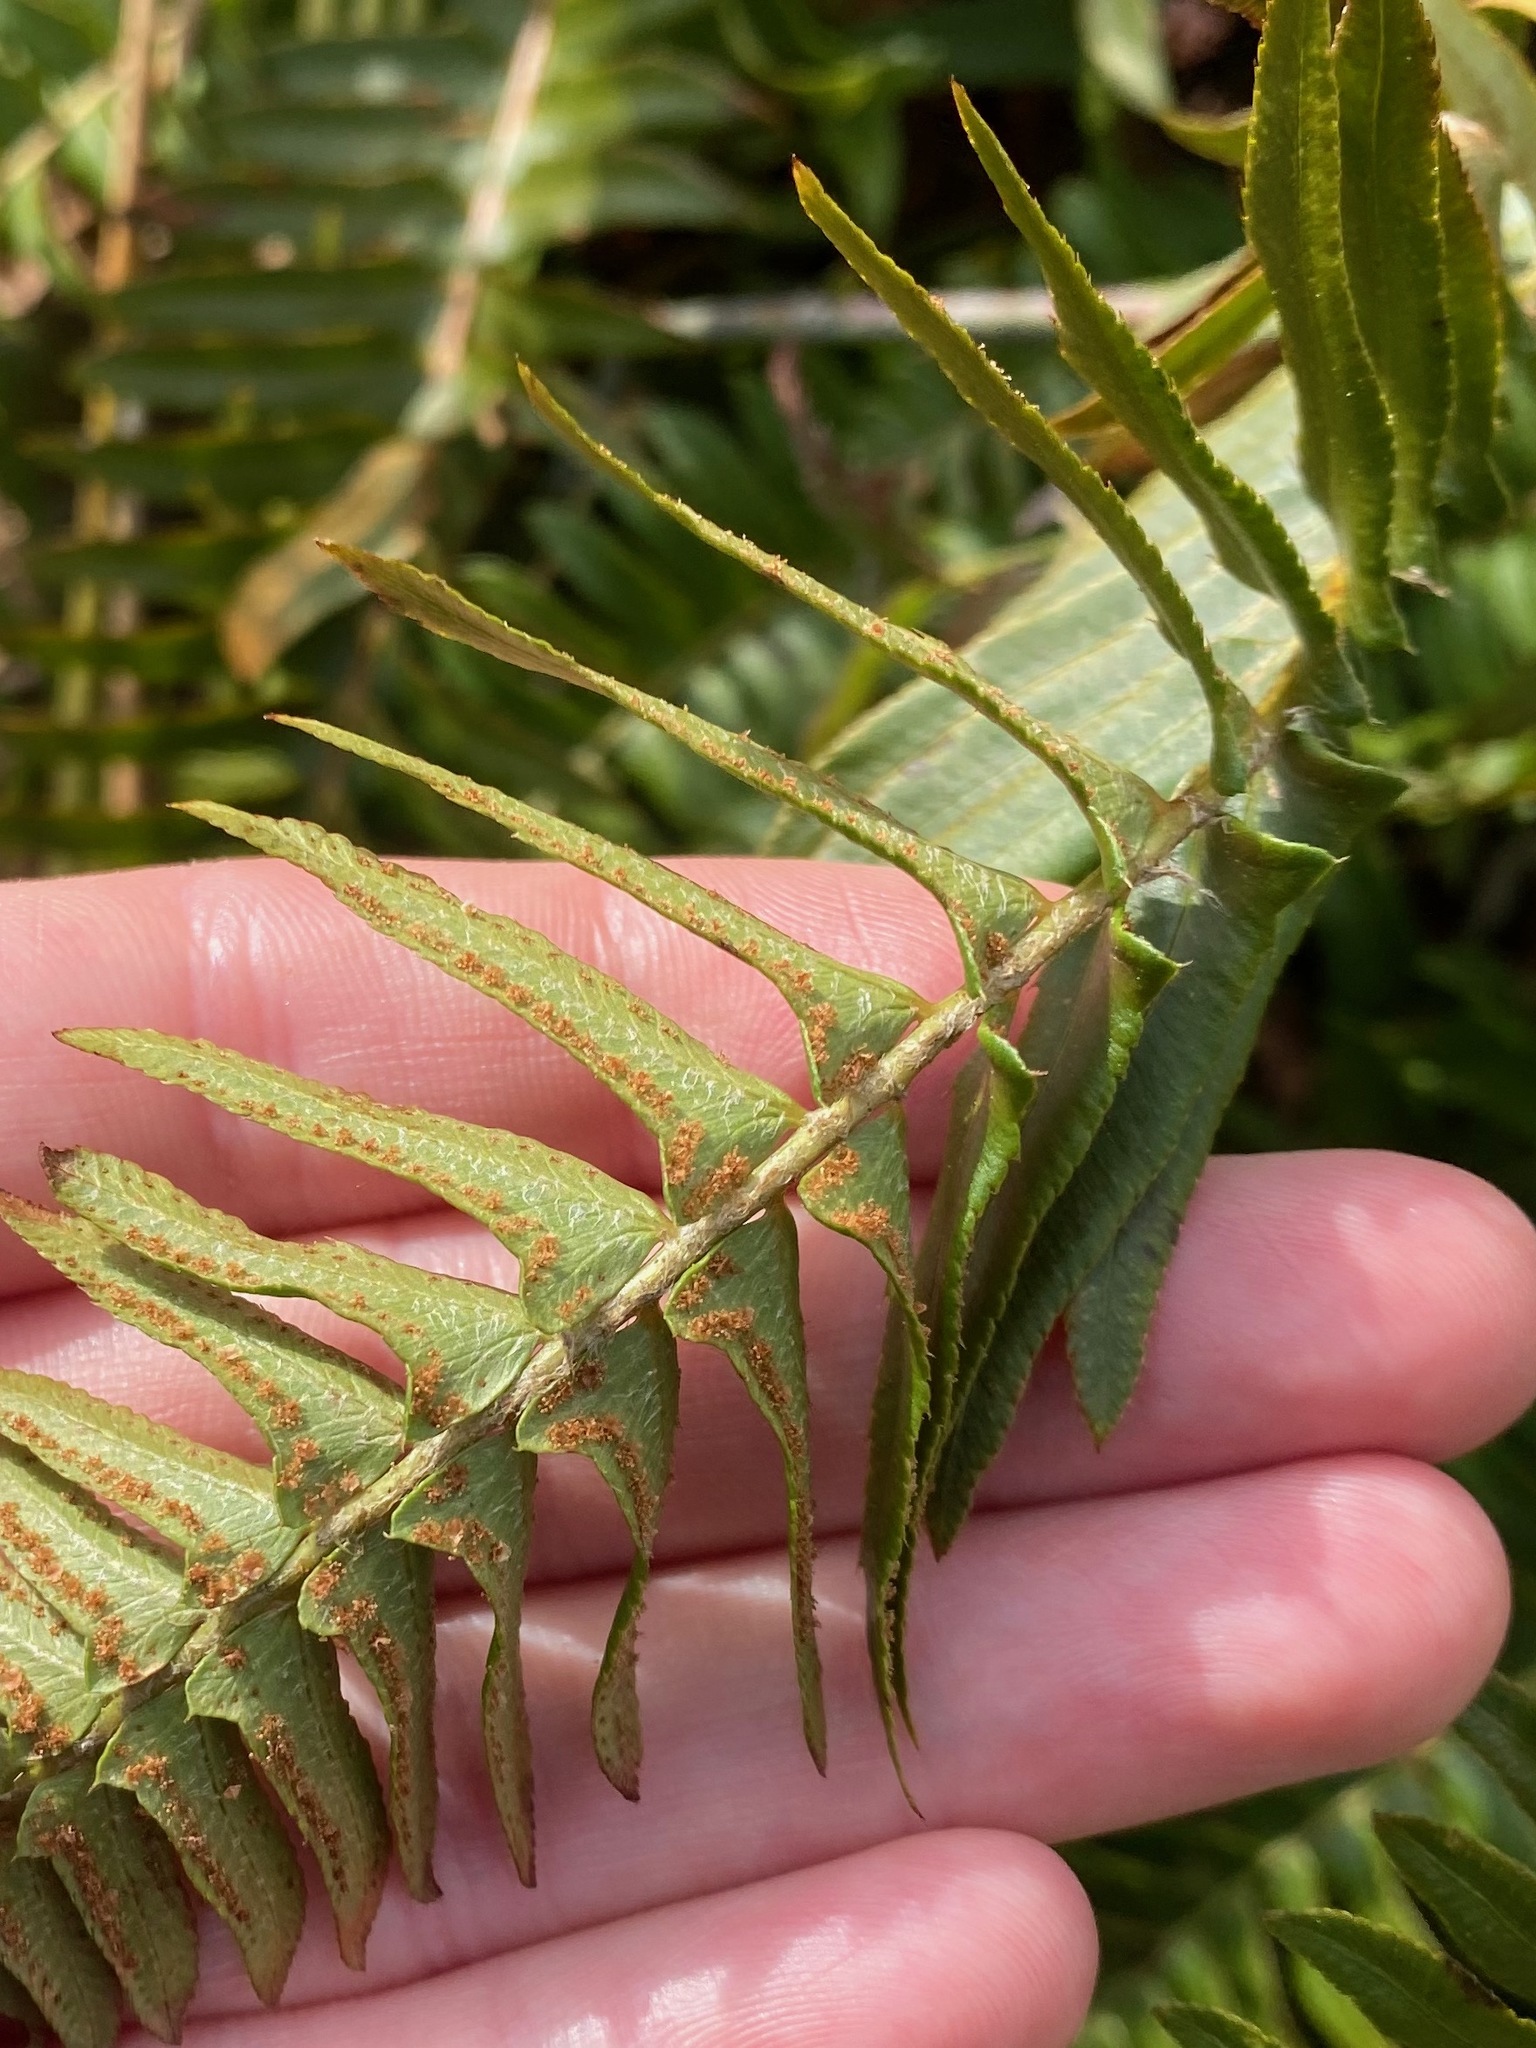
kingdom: Plantae
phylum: Tracheophyta
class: Polypodiopsida
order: Polypodiales
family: Dryopteridaceae
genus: Polystichum
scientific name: Polystichum imbricans
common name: Dwarf western sword fern
